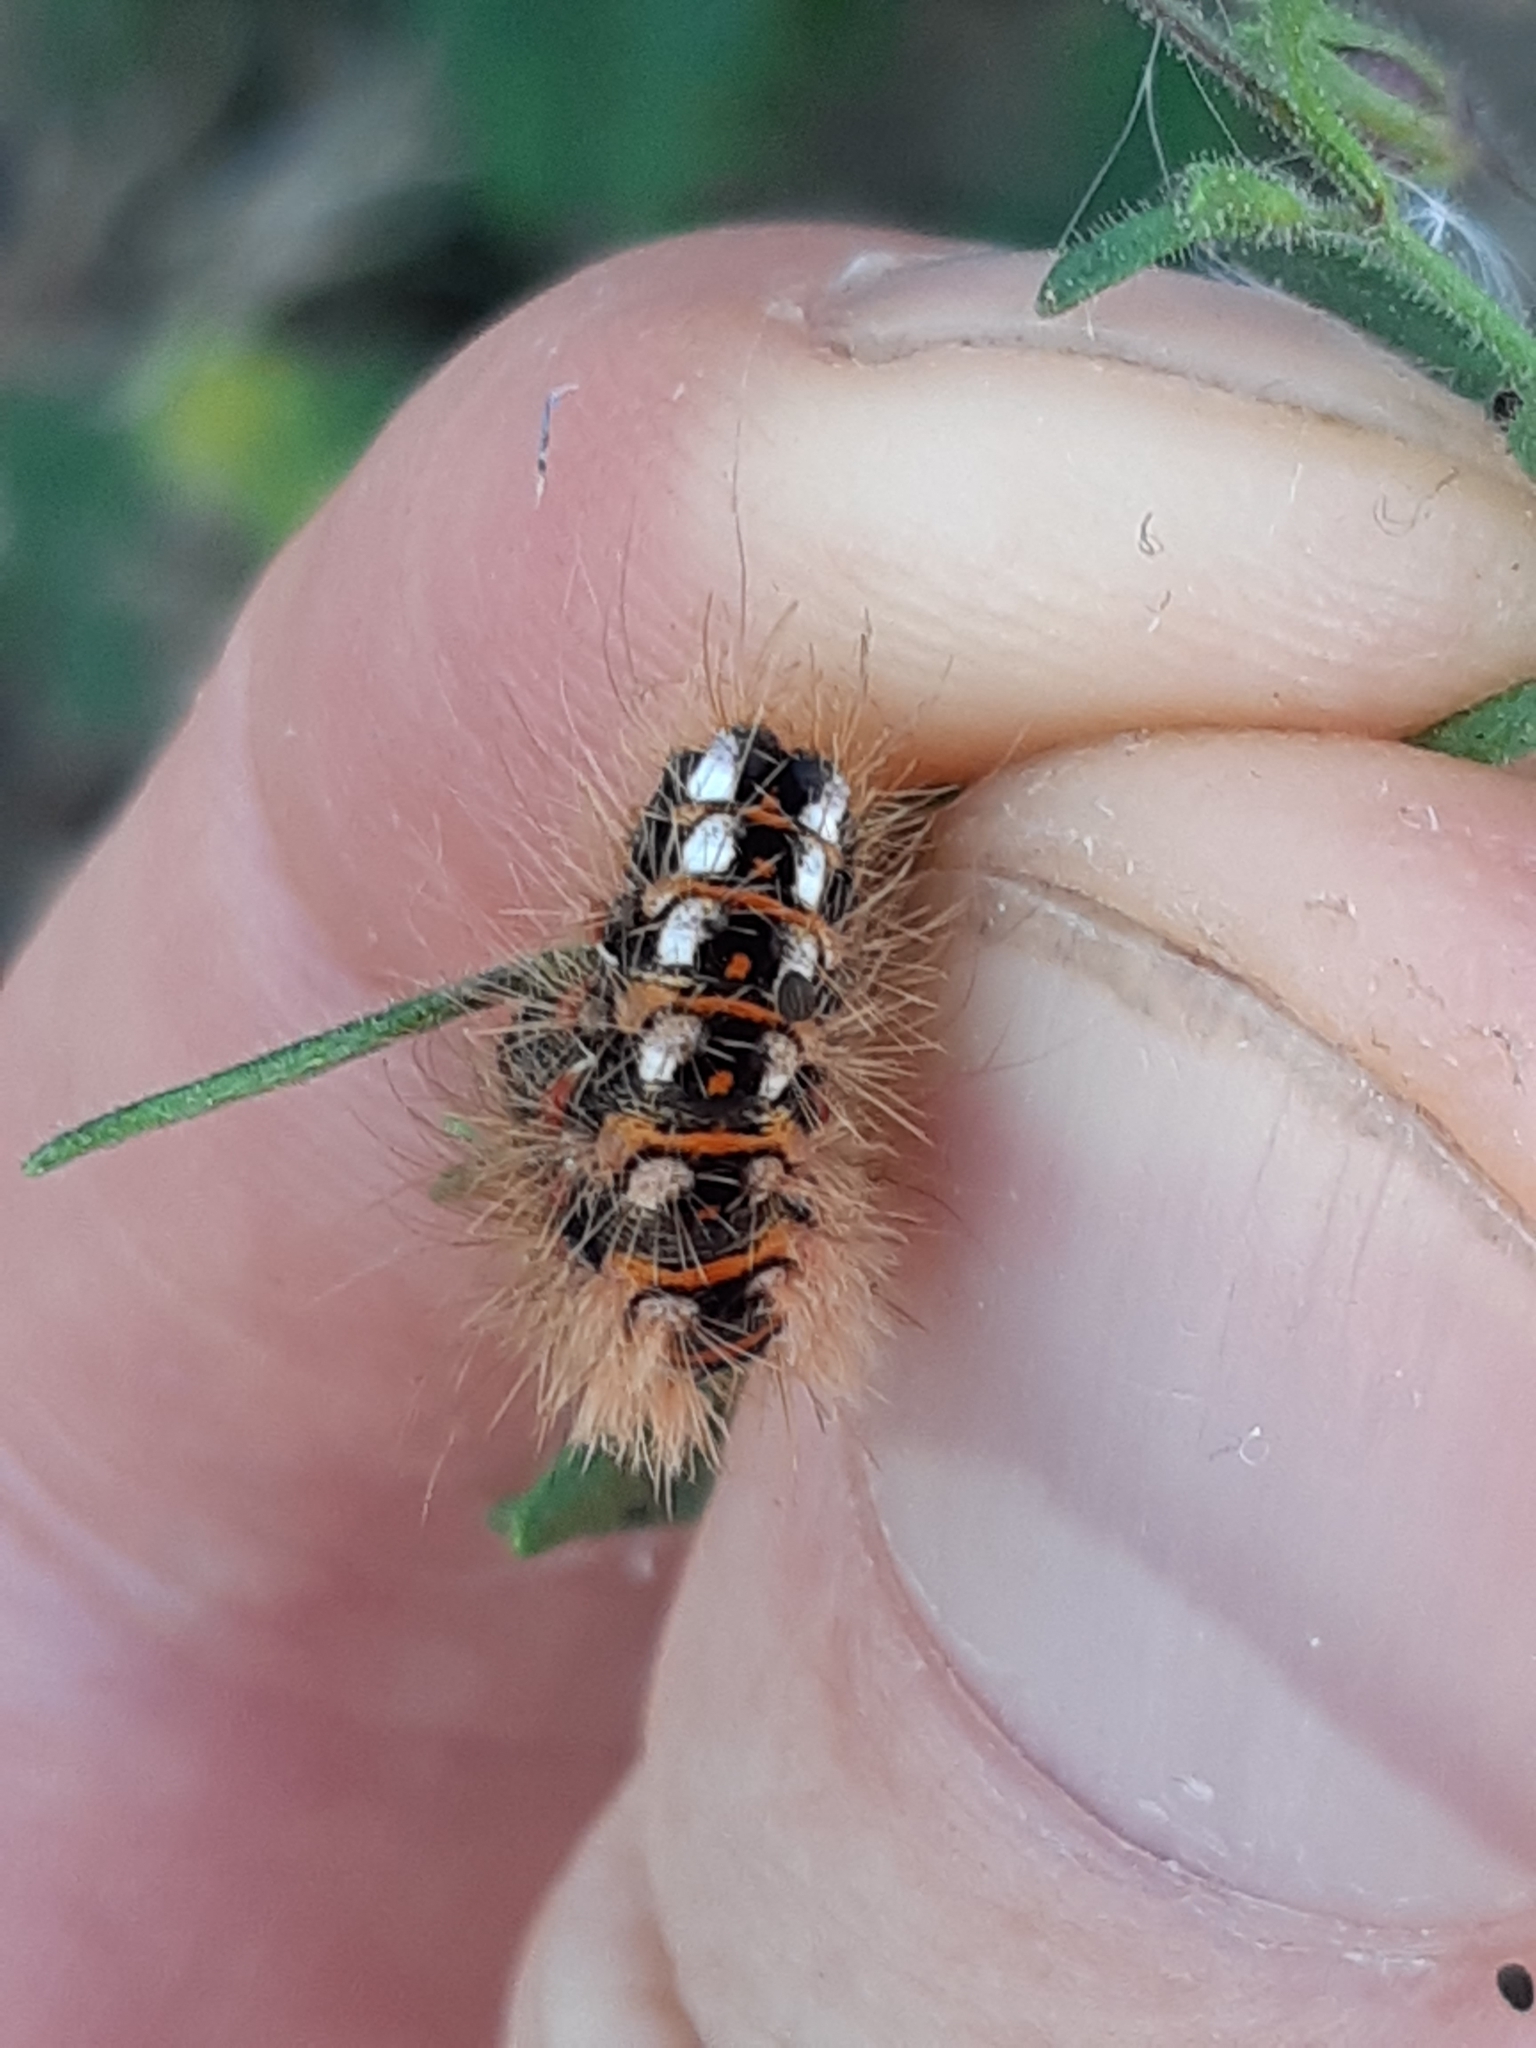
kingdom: Animalia
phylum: Arthropoda
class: Insecta
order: Lepidoptera
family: Noctuidae
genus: Acronicta
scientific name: Acronicta rumicis
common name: Knot grass
